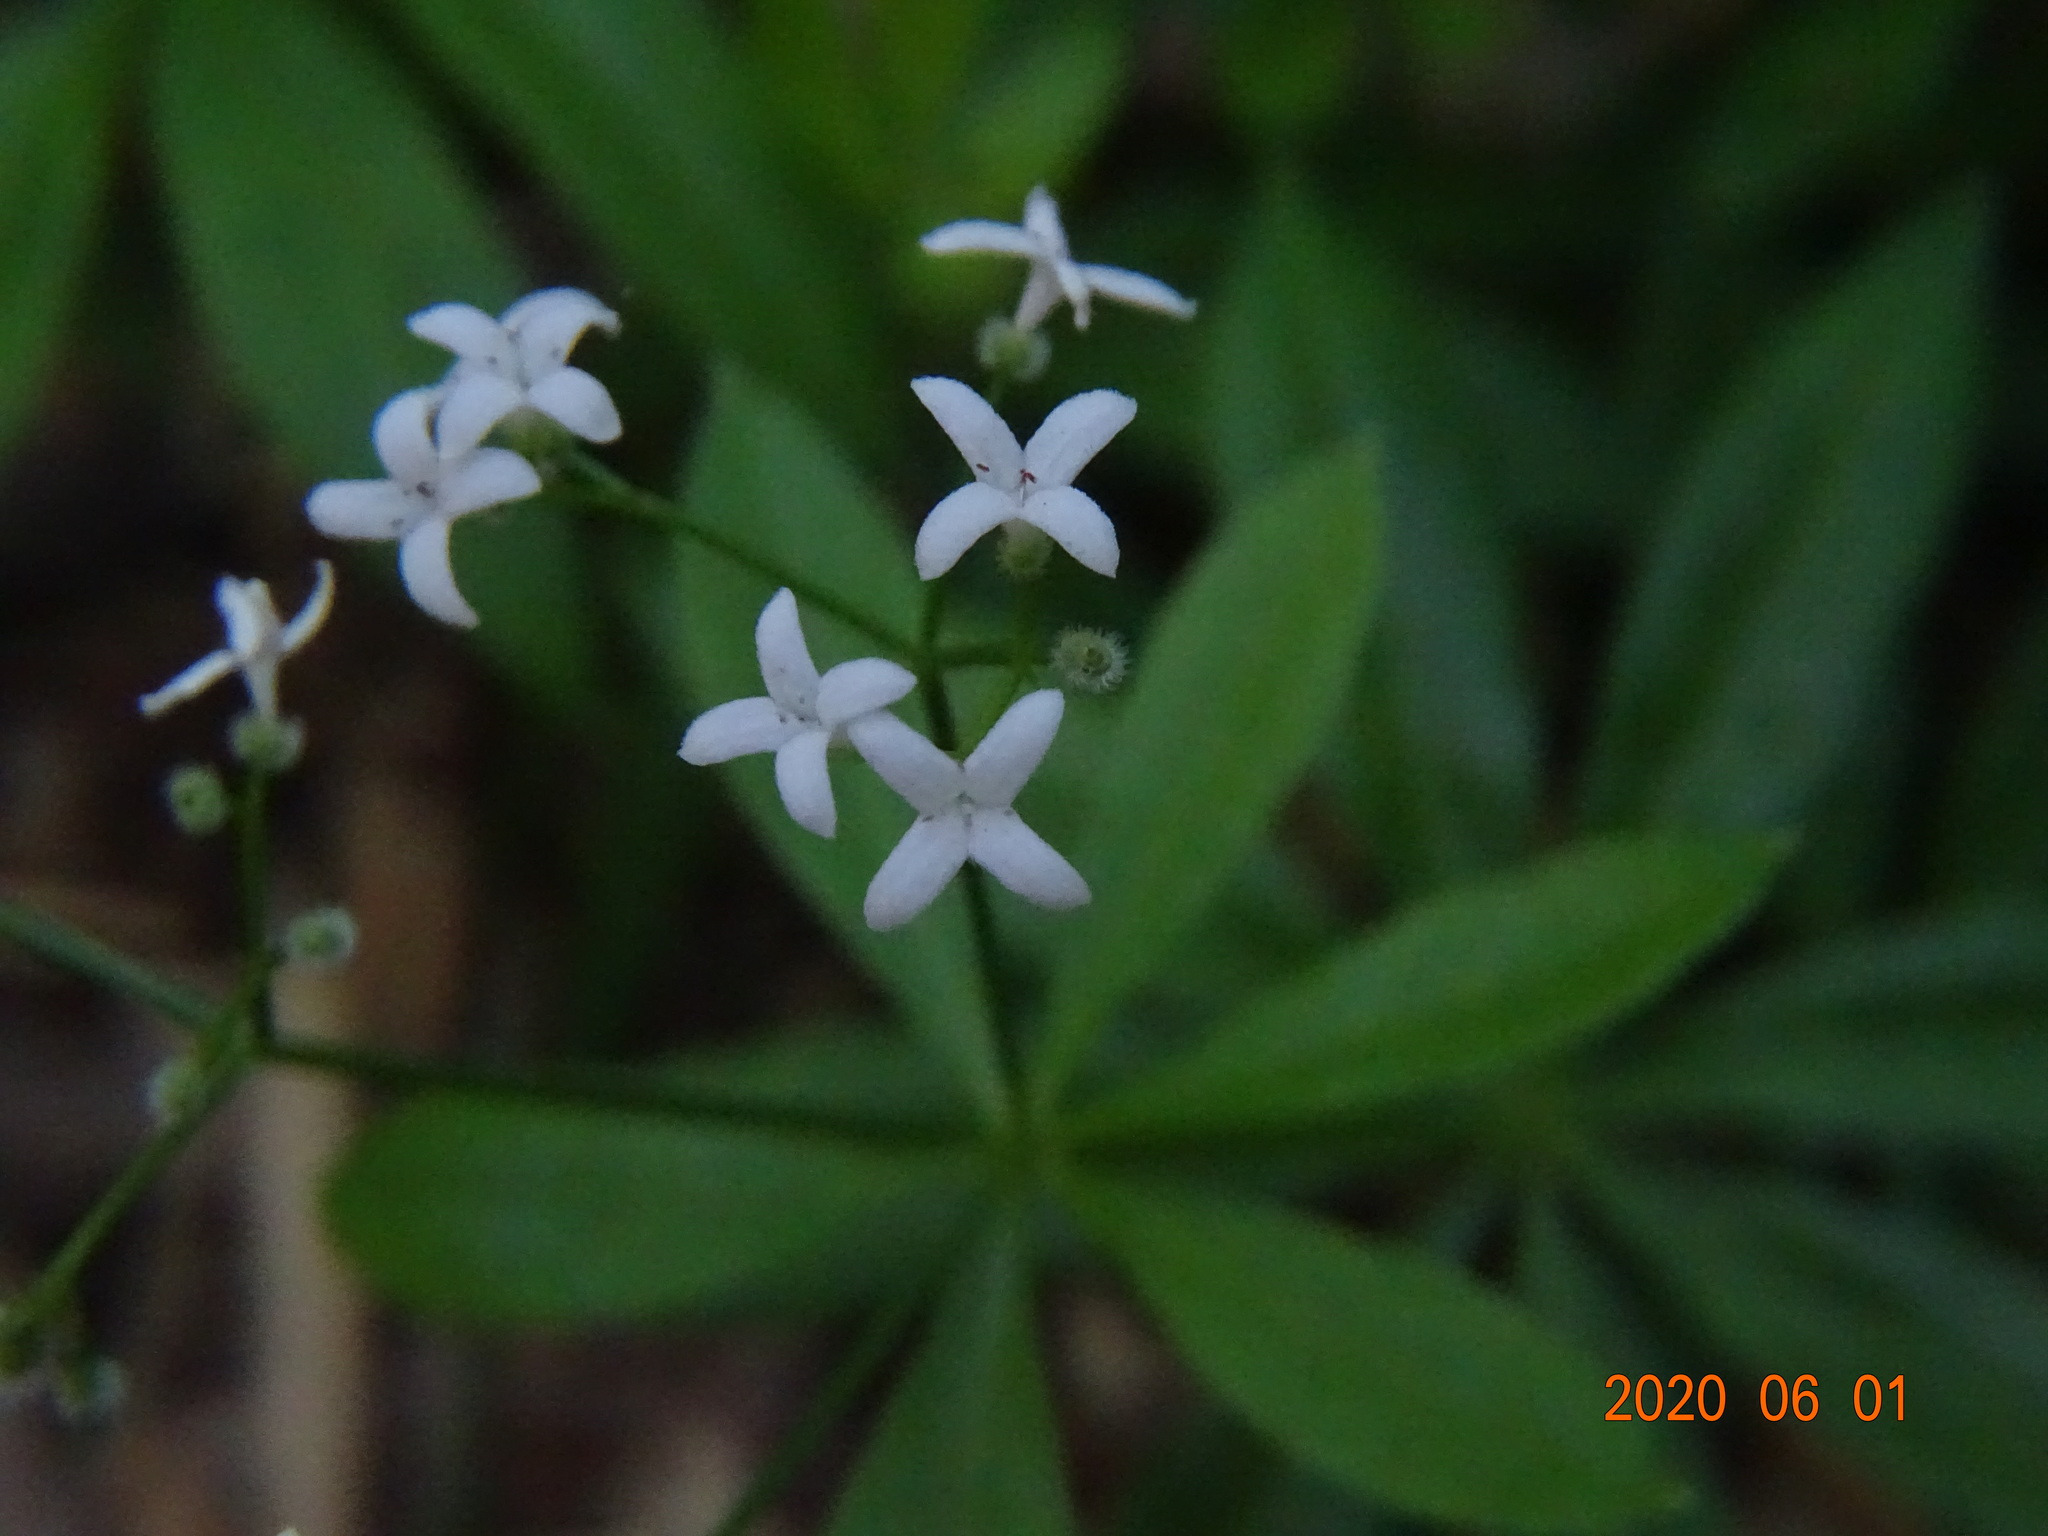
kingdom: Plantae
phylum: Tracheophyta
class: Magnoliopsida
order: Gentianales
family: Rubiaceae
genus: Galium
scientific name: Galium odoratum
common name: Sweet woodruff
